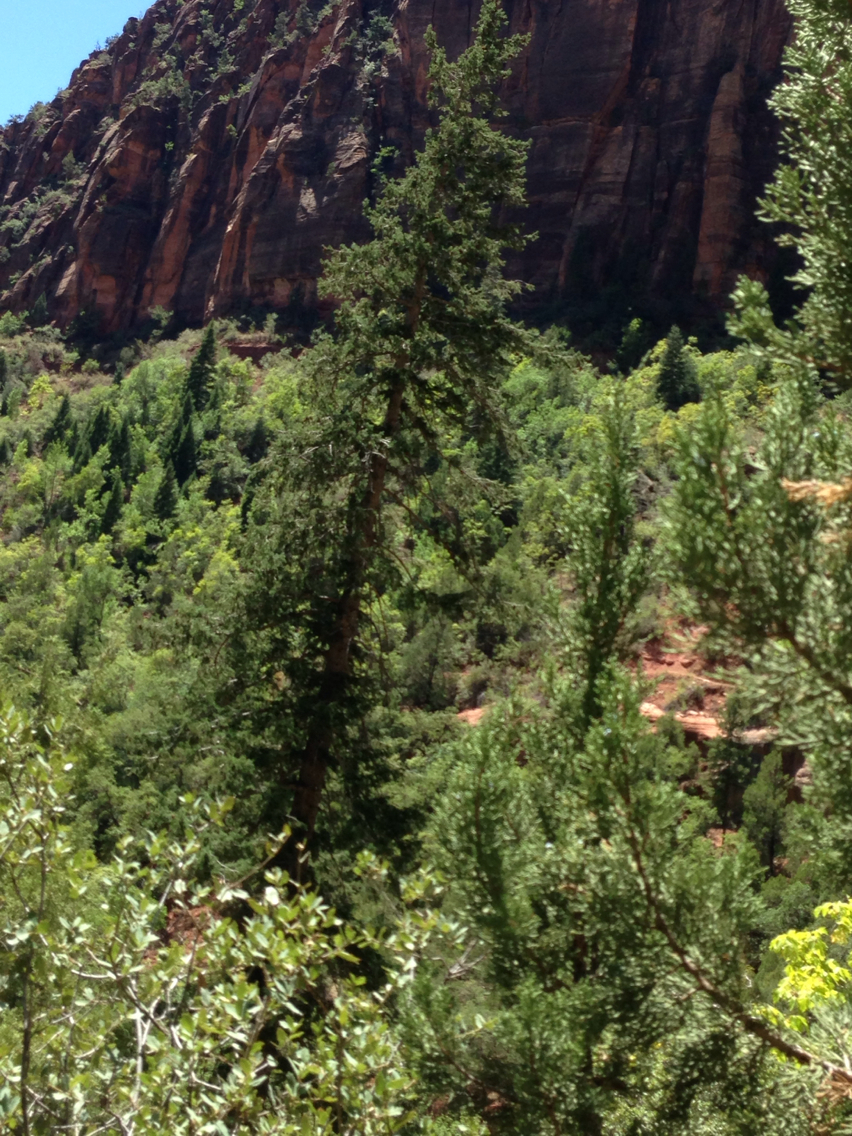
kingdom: Plantae
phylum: Tracheophyta
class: Pinopsida
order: Pinales
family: Pinaceae
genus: Pseudotsuga
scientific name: Pseudotsuga menziesii
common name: Douglas fir
